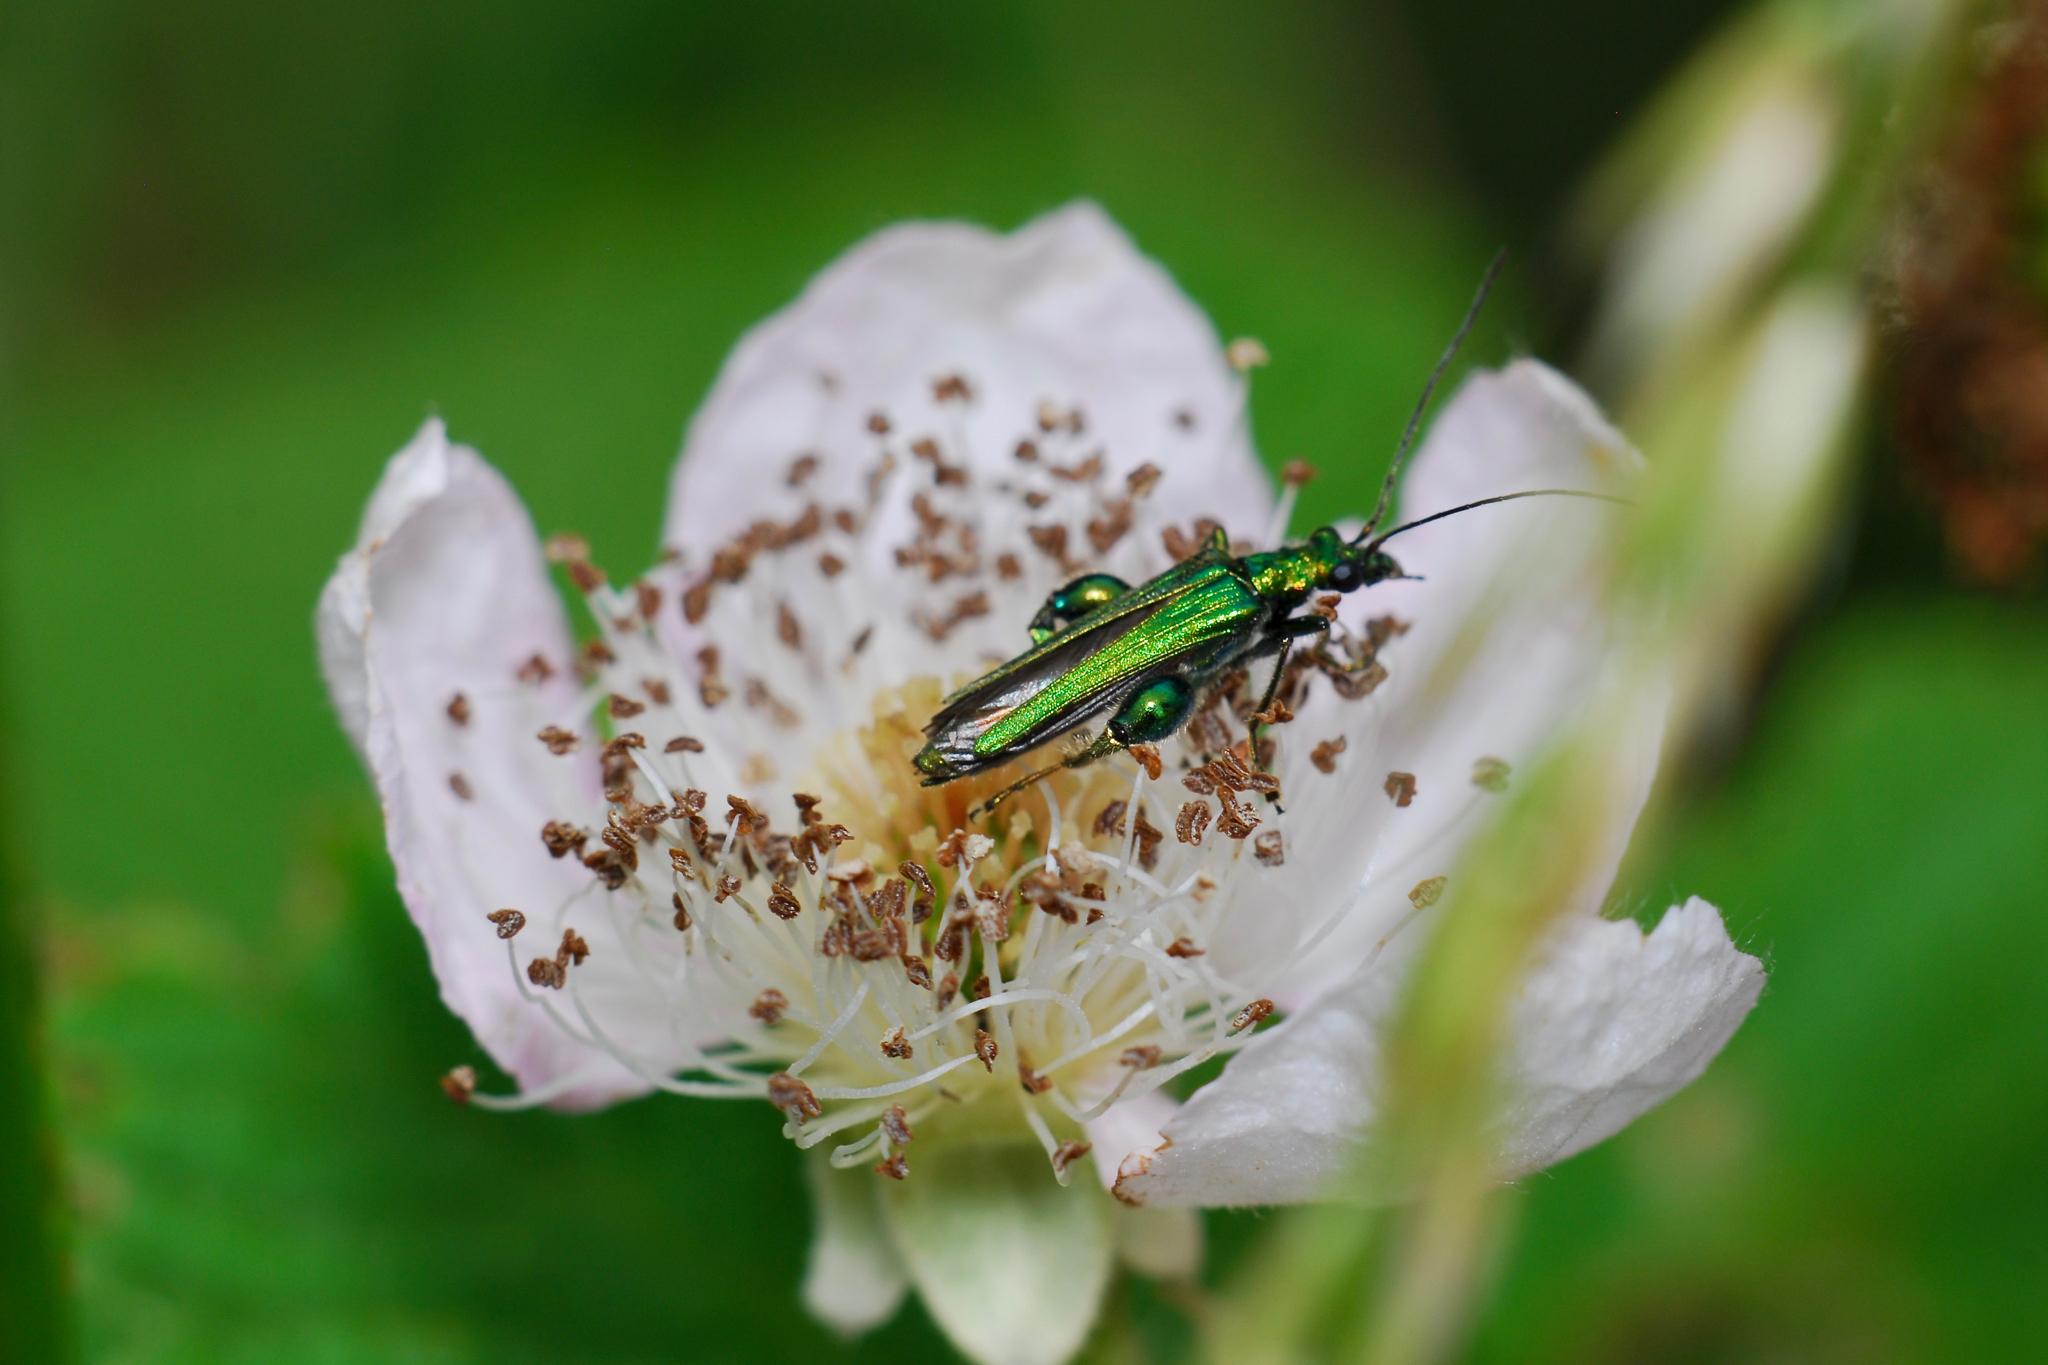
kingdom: Animalia
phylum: Arthropoda
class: Insecta
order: Coleoptera
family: Oedemeridae
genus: Oedemera
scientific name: Oedemera nobilis
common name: Swollen-thighed beetle
